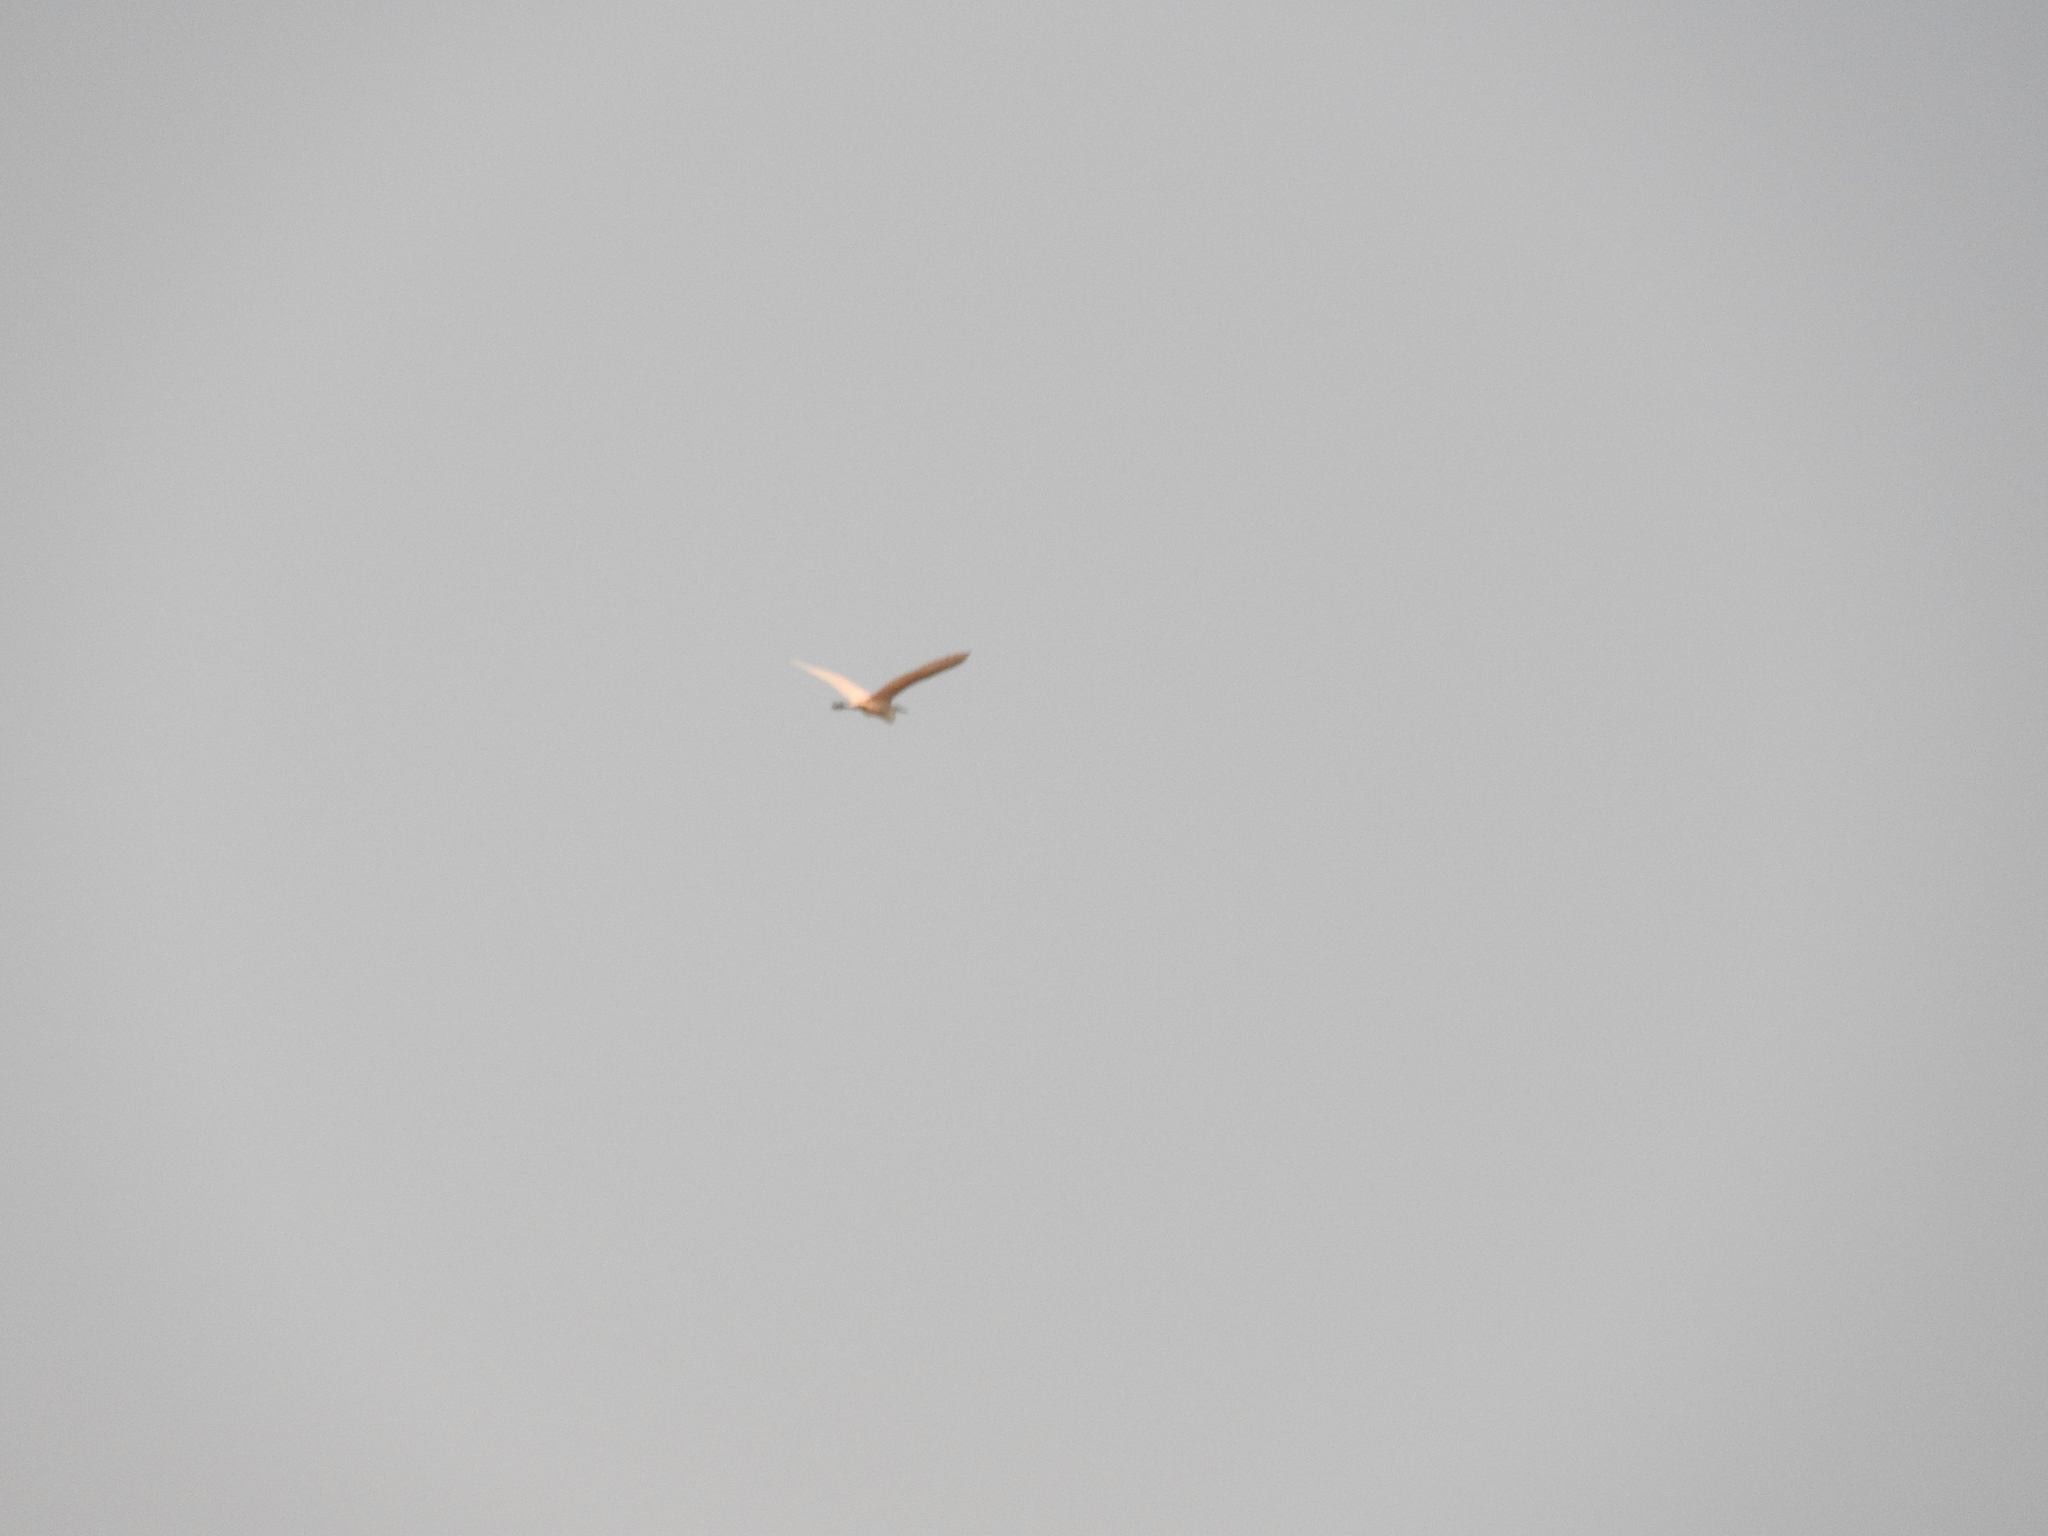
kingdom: Animalia
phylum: Chordata
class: Aves
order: Pelecaniformes
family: Ardeidae
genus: Bubulcus
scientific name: Bubulcus ibis
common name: Cattle egret
